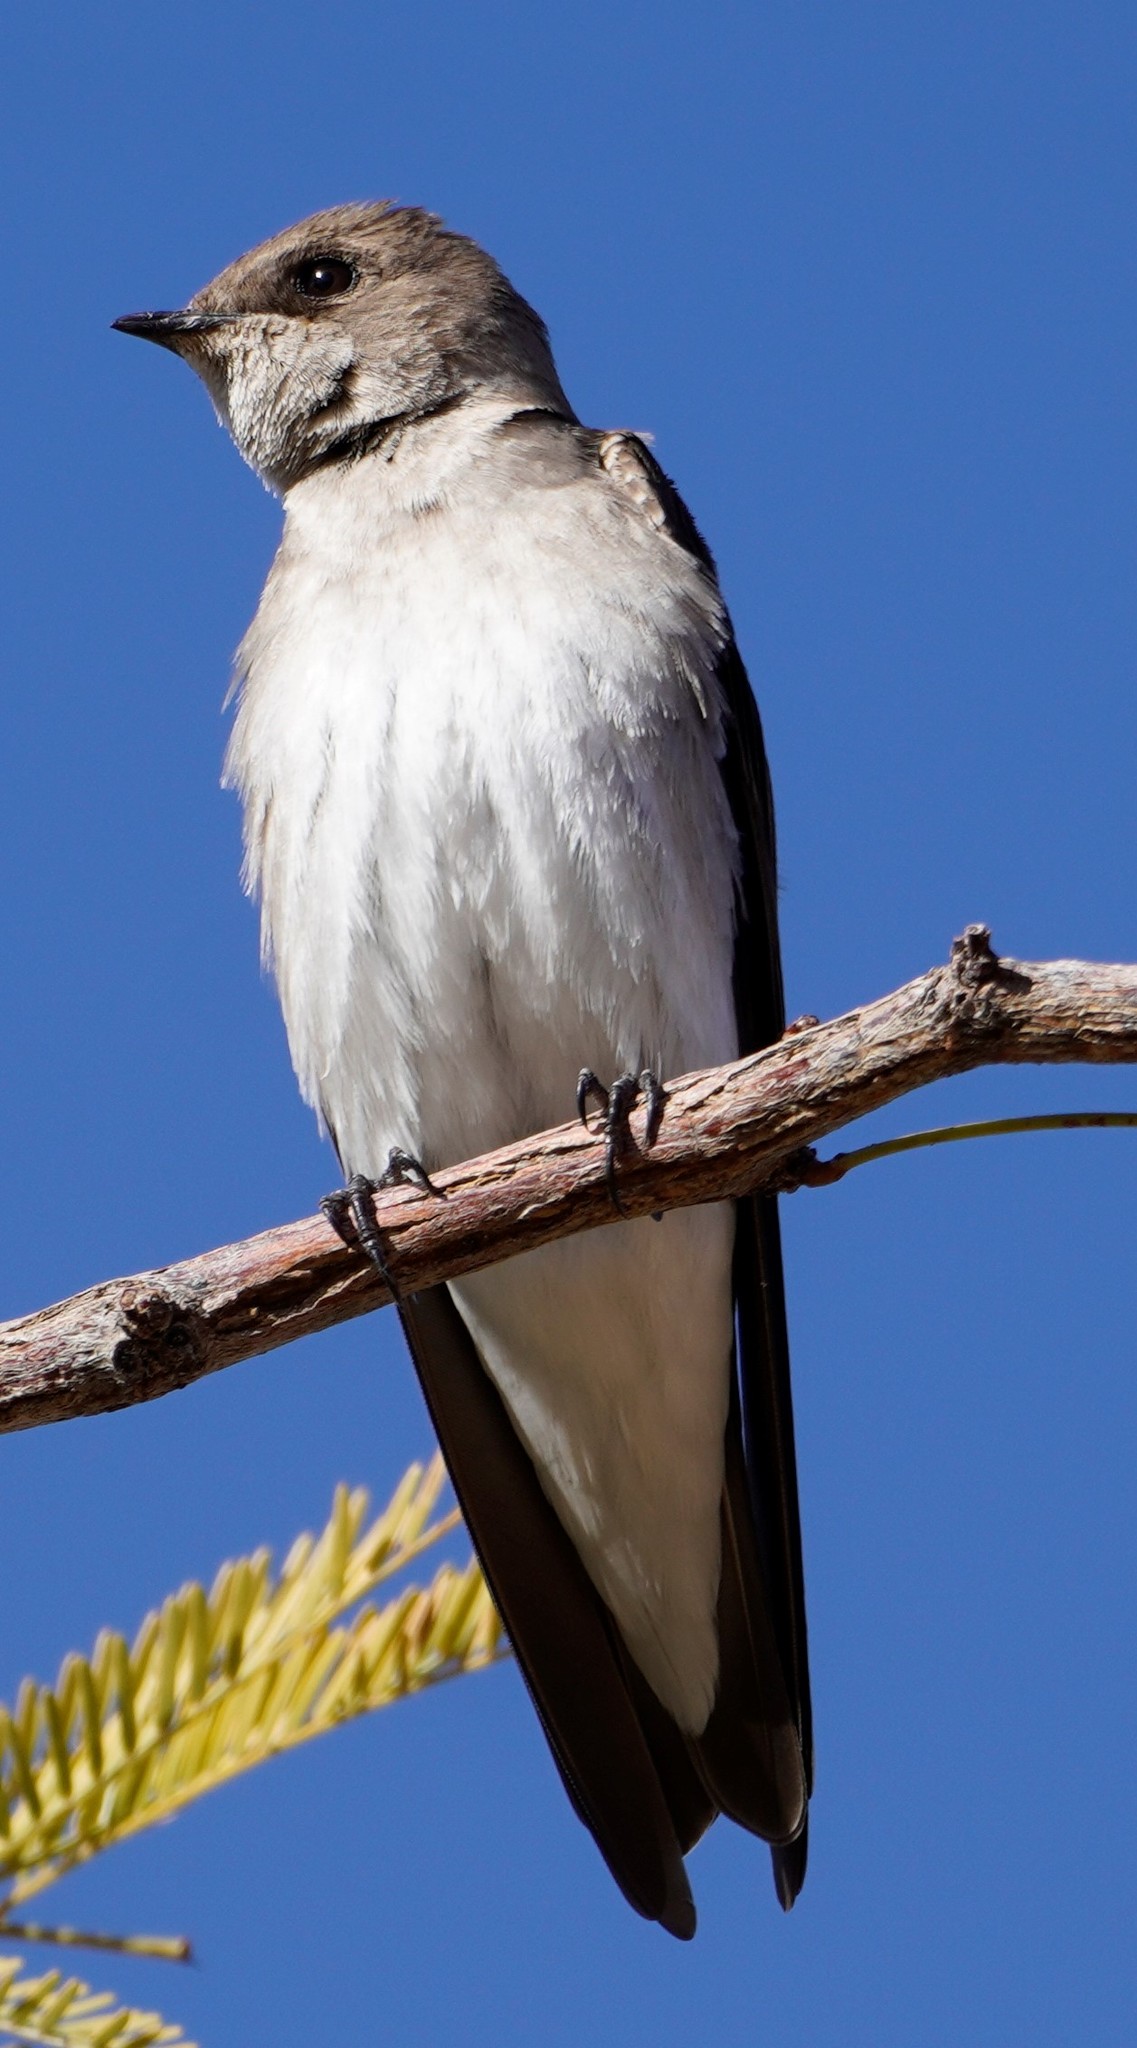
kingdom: Animalia
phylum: Chordata
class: Aves
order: Passeriformes
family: Hirundinidae
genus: Stelgidopteryx
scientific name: Stelgidopteryx serripennis
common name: Northern rough-winged swallow
